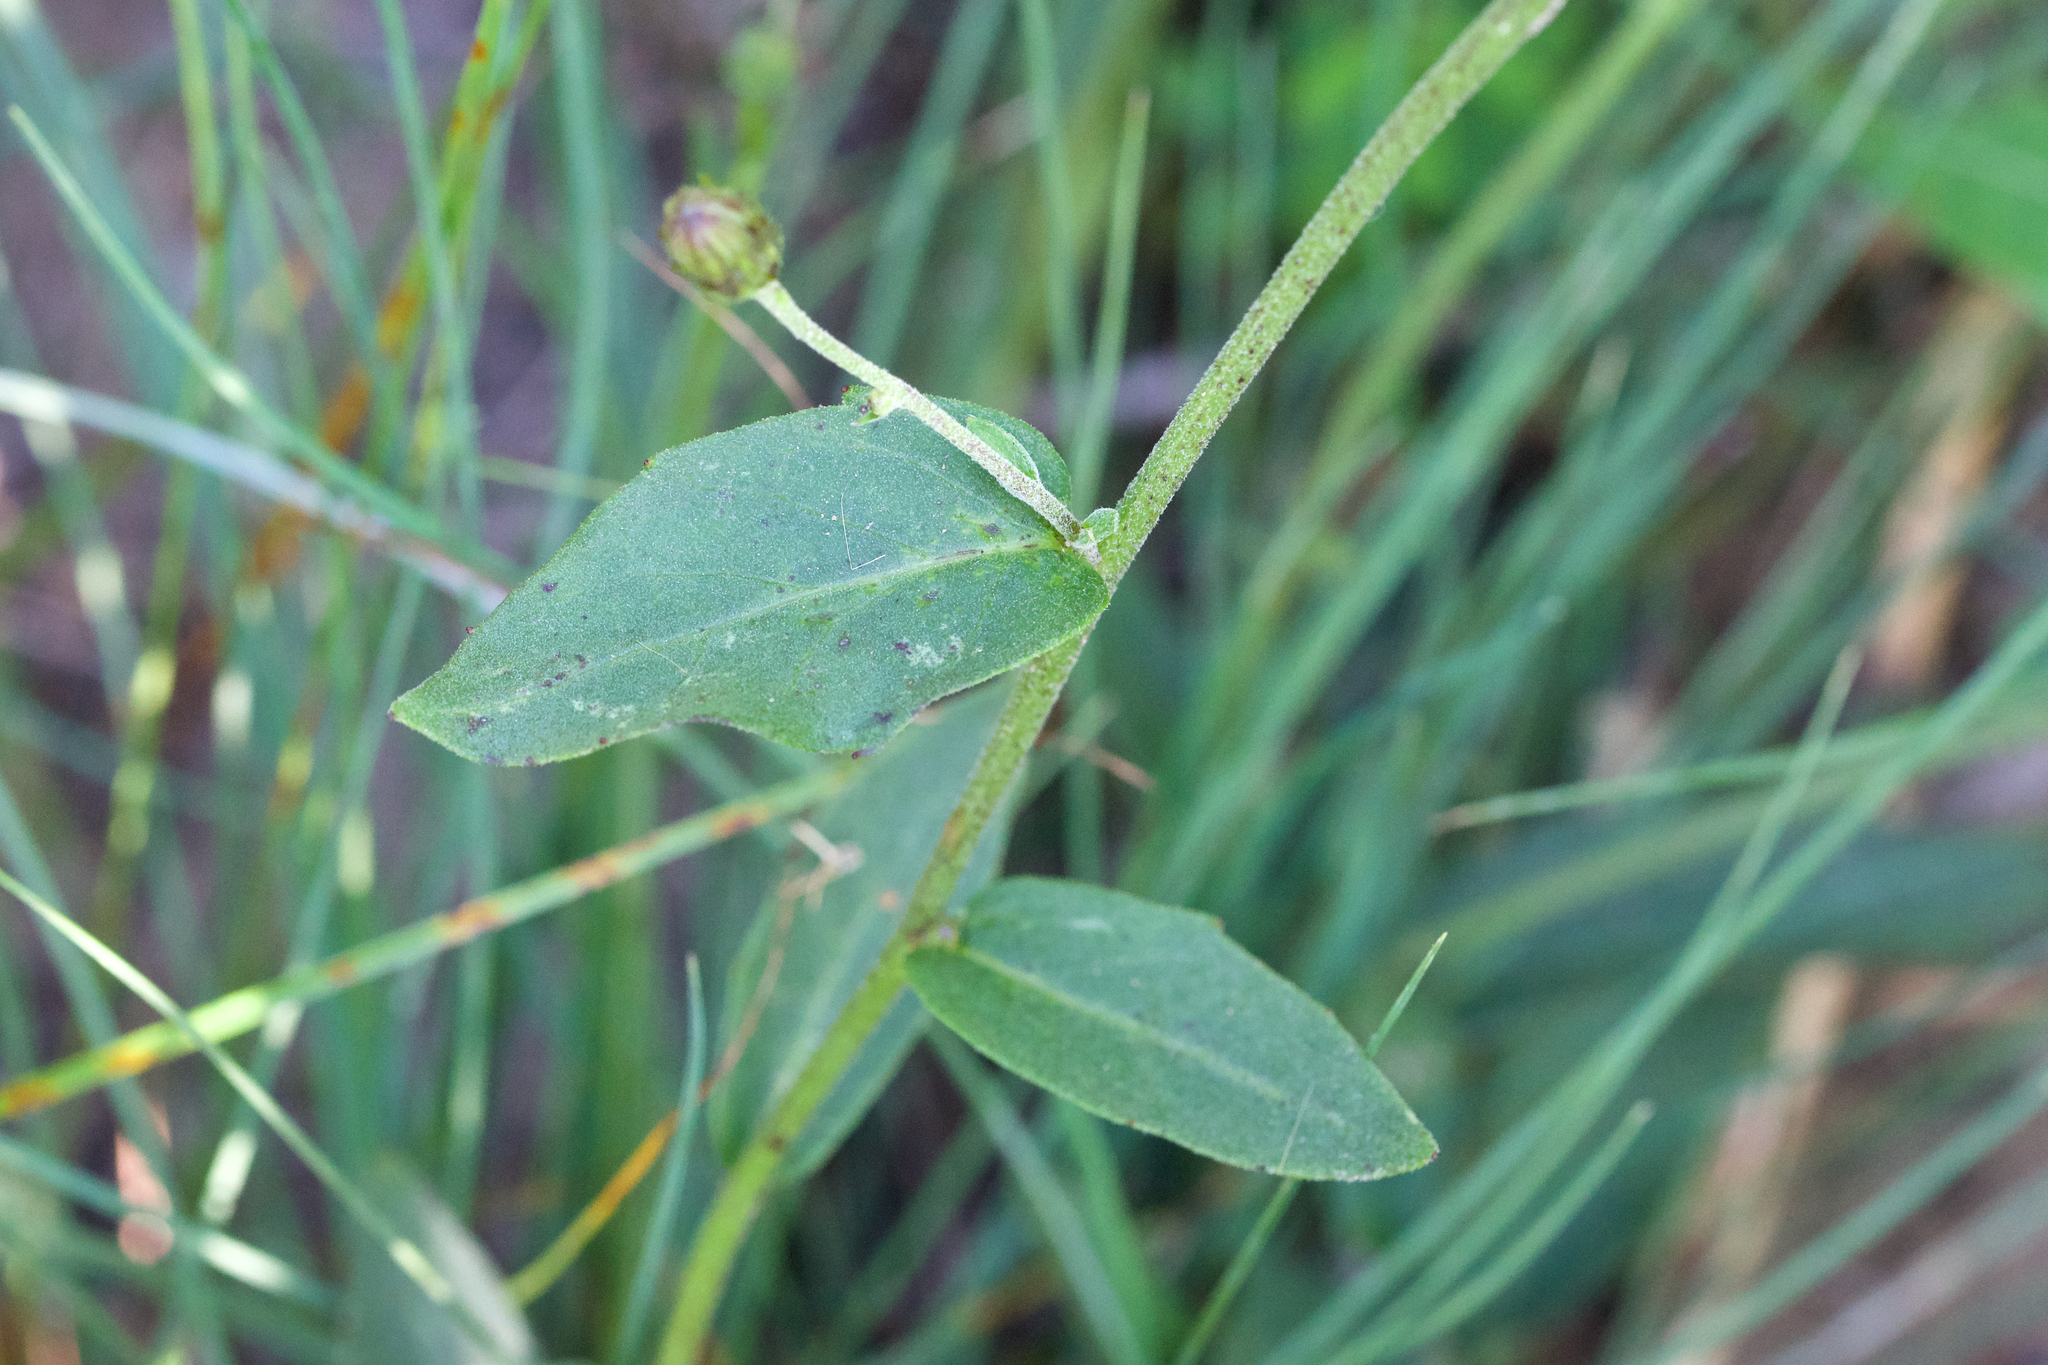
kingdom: Plantae
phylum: Tracheophyta
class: Magnoliopsida
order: Asterales
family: Asteraceae
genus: Hieracium
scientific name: Hieracium umbellatum
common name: Northern hawkweed
